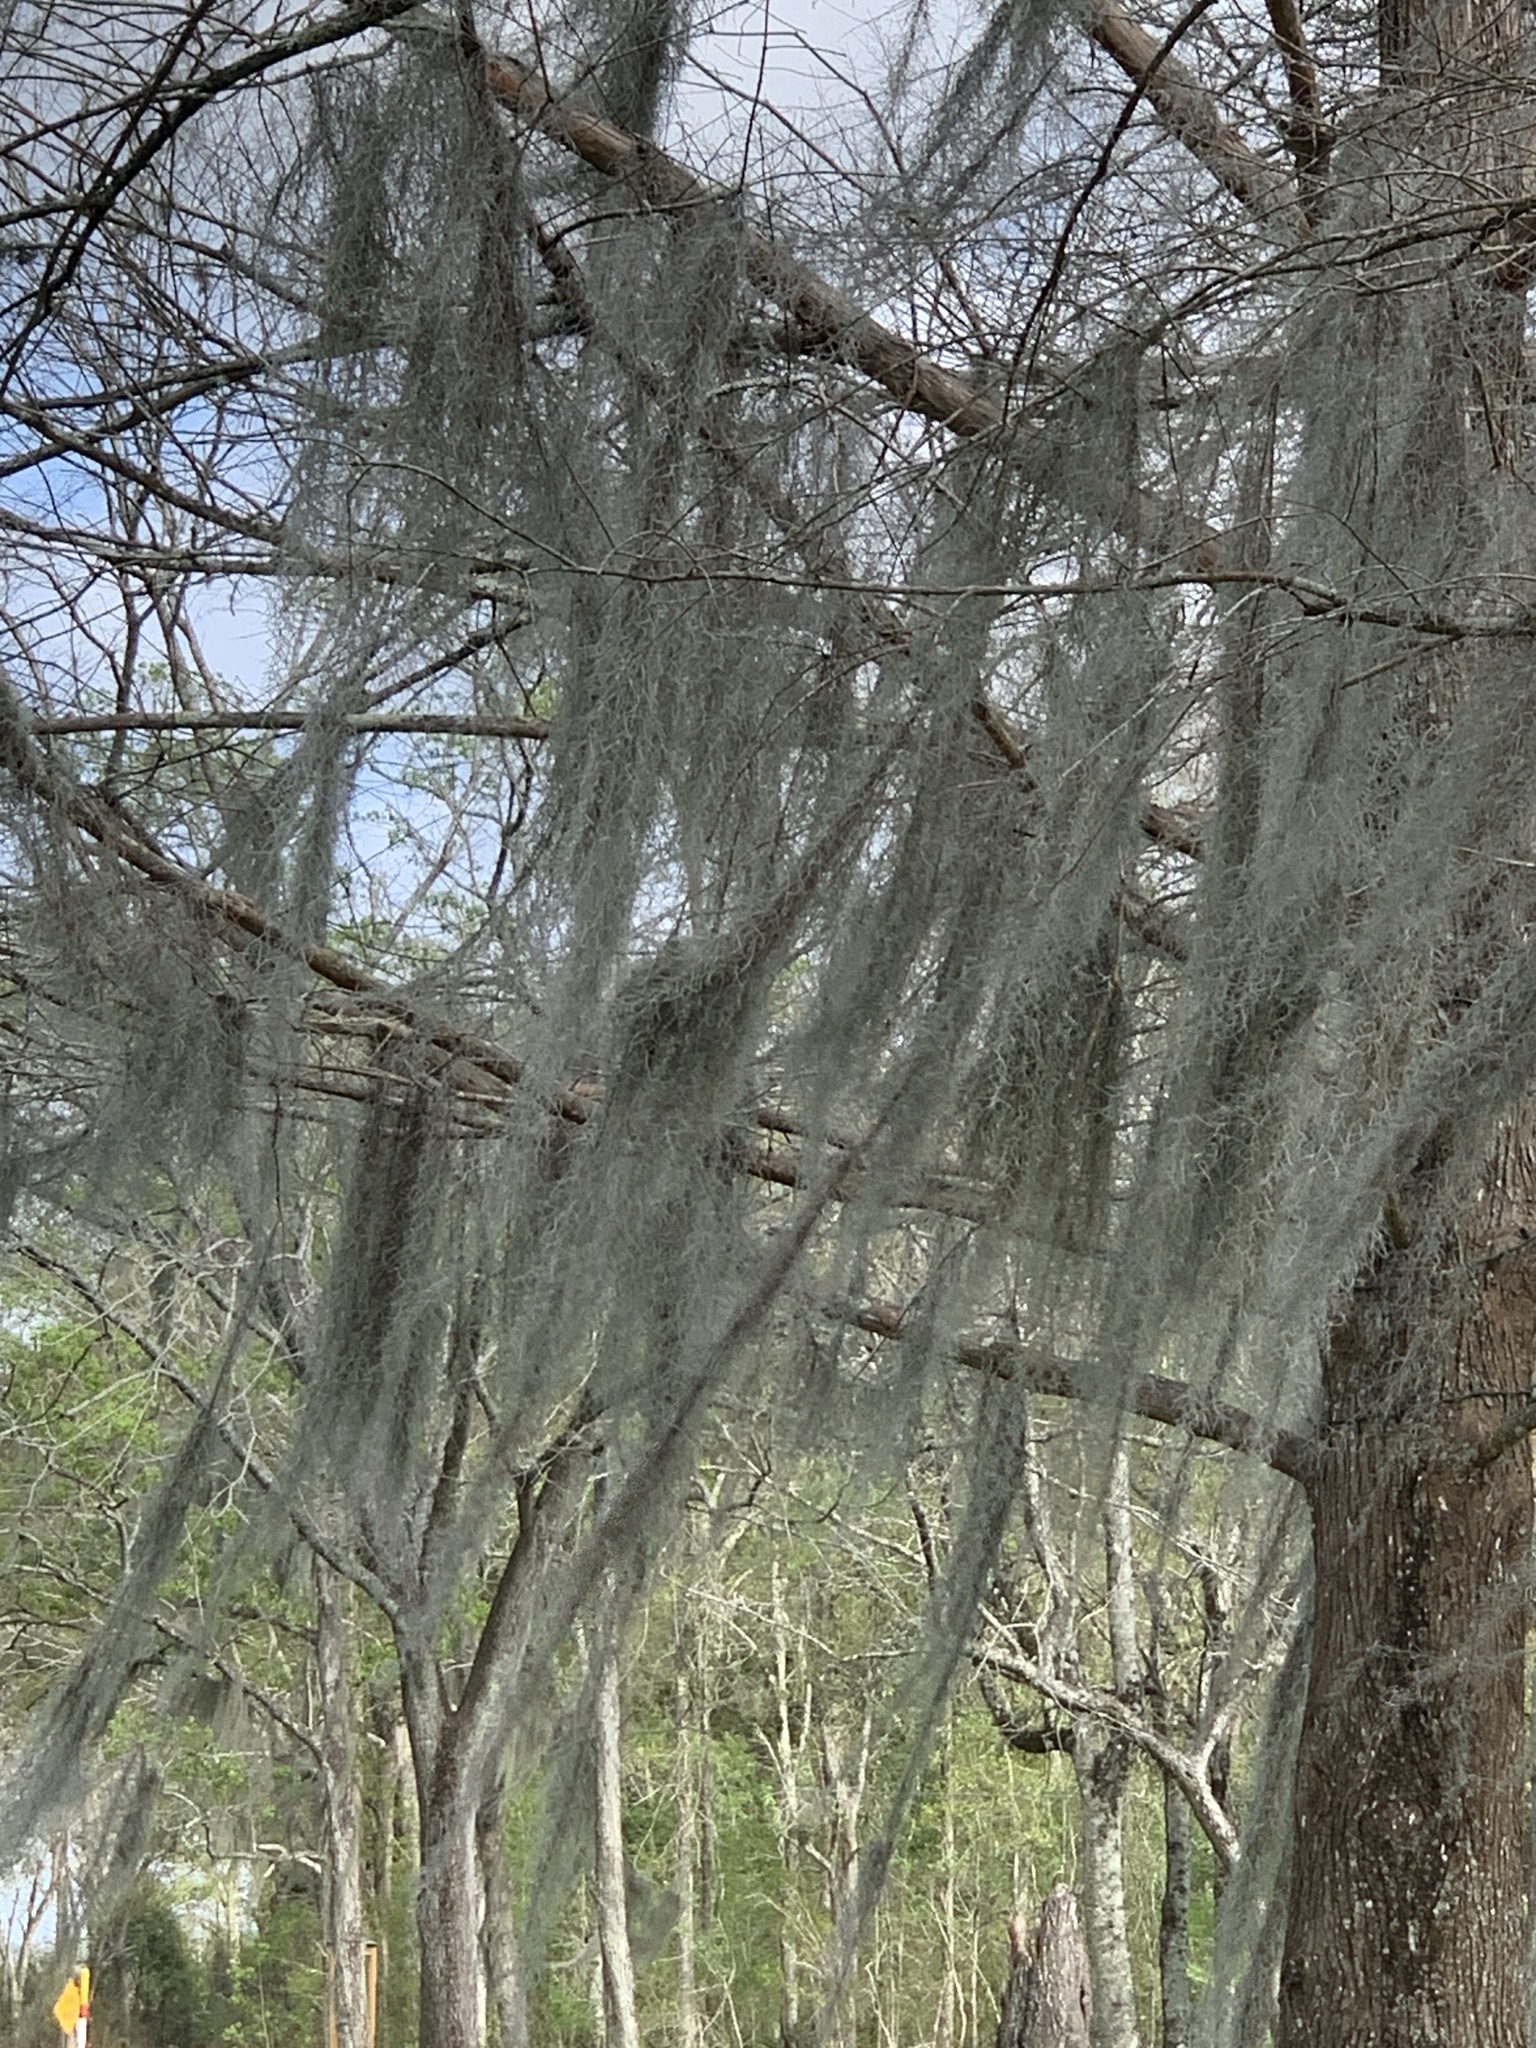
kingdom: Plantae
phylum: Tracheophyta
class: Liliopsida
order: Poales
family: Bromeliaceae
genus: Tillandsia
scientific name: Tillandsia usneoides
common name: Spanish moss
